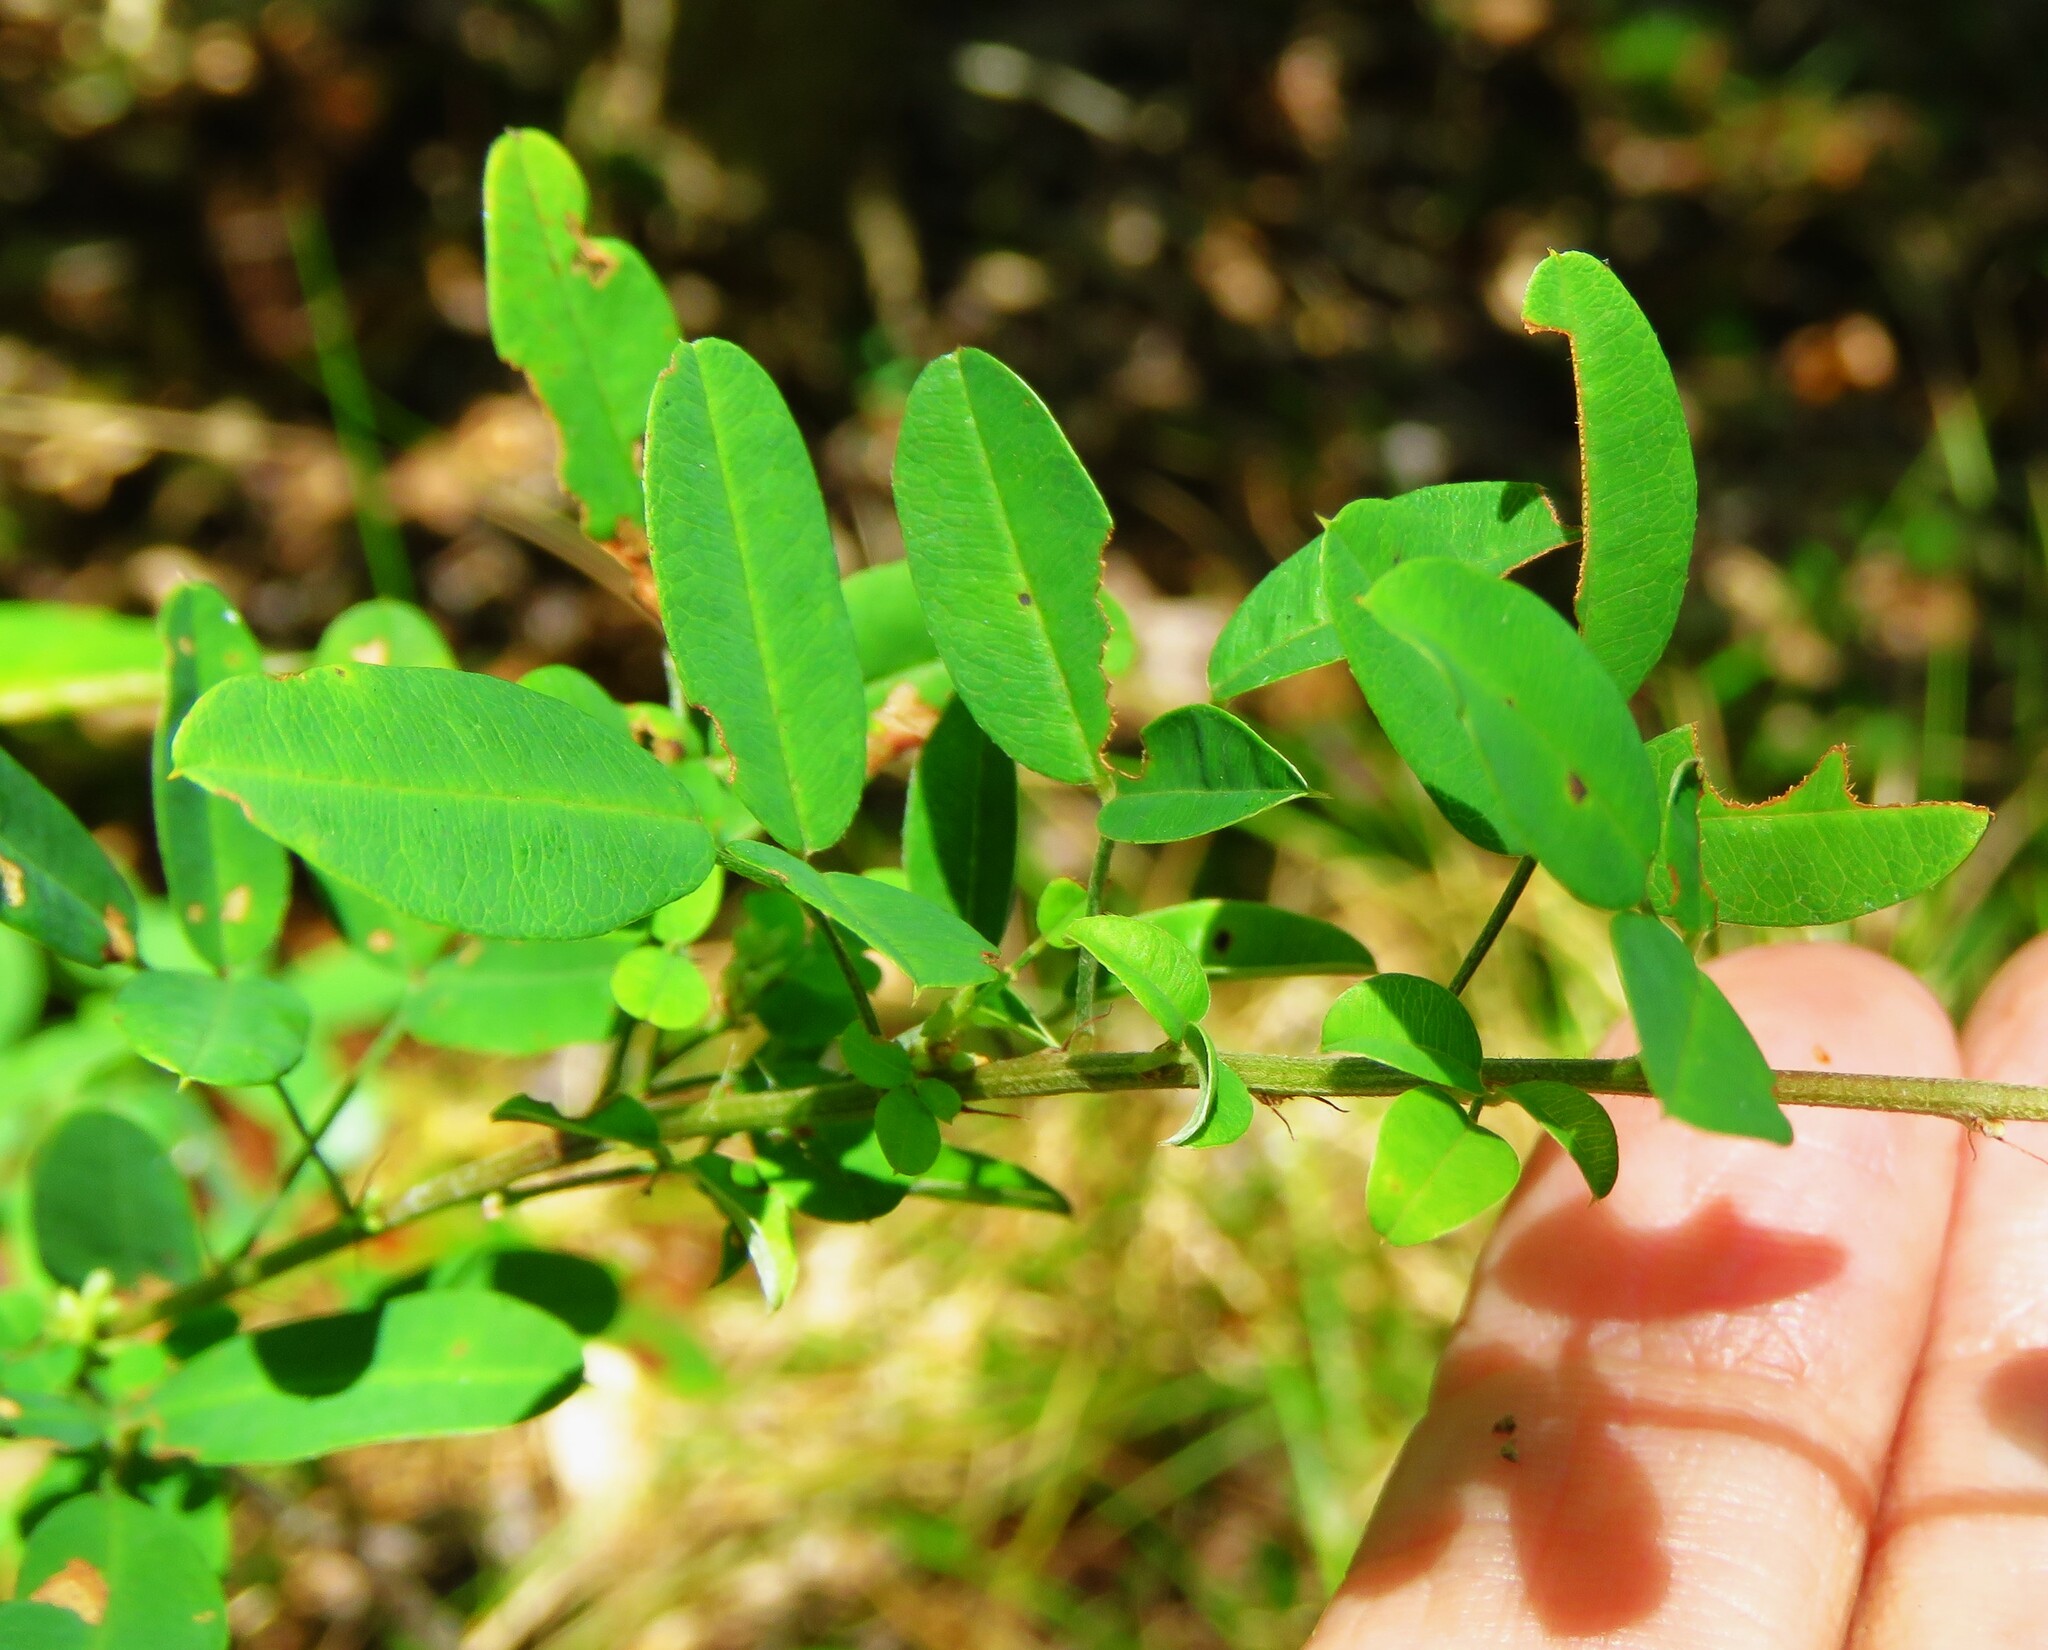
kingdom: Plantae
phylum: Tracheophyta
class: Magnoliopsida
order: Fabales
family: Fabaceae
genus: Lespedeza
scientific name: Lespedeza violacea
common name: Wand bush-clover
